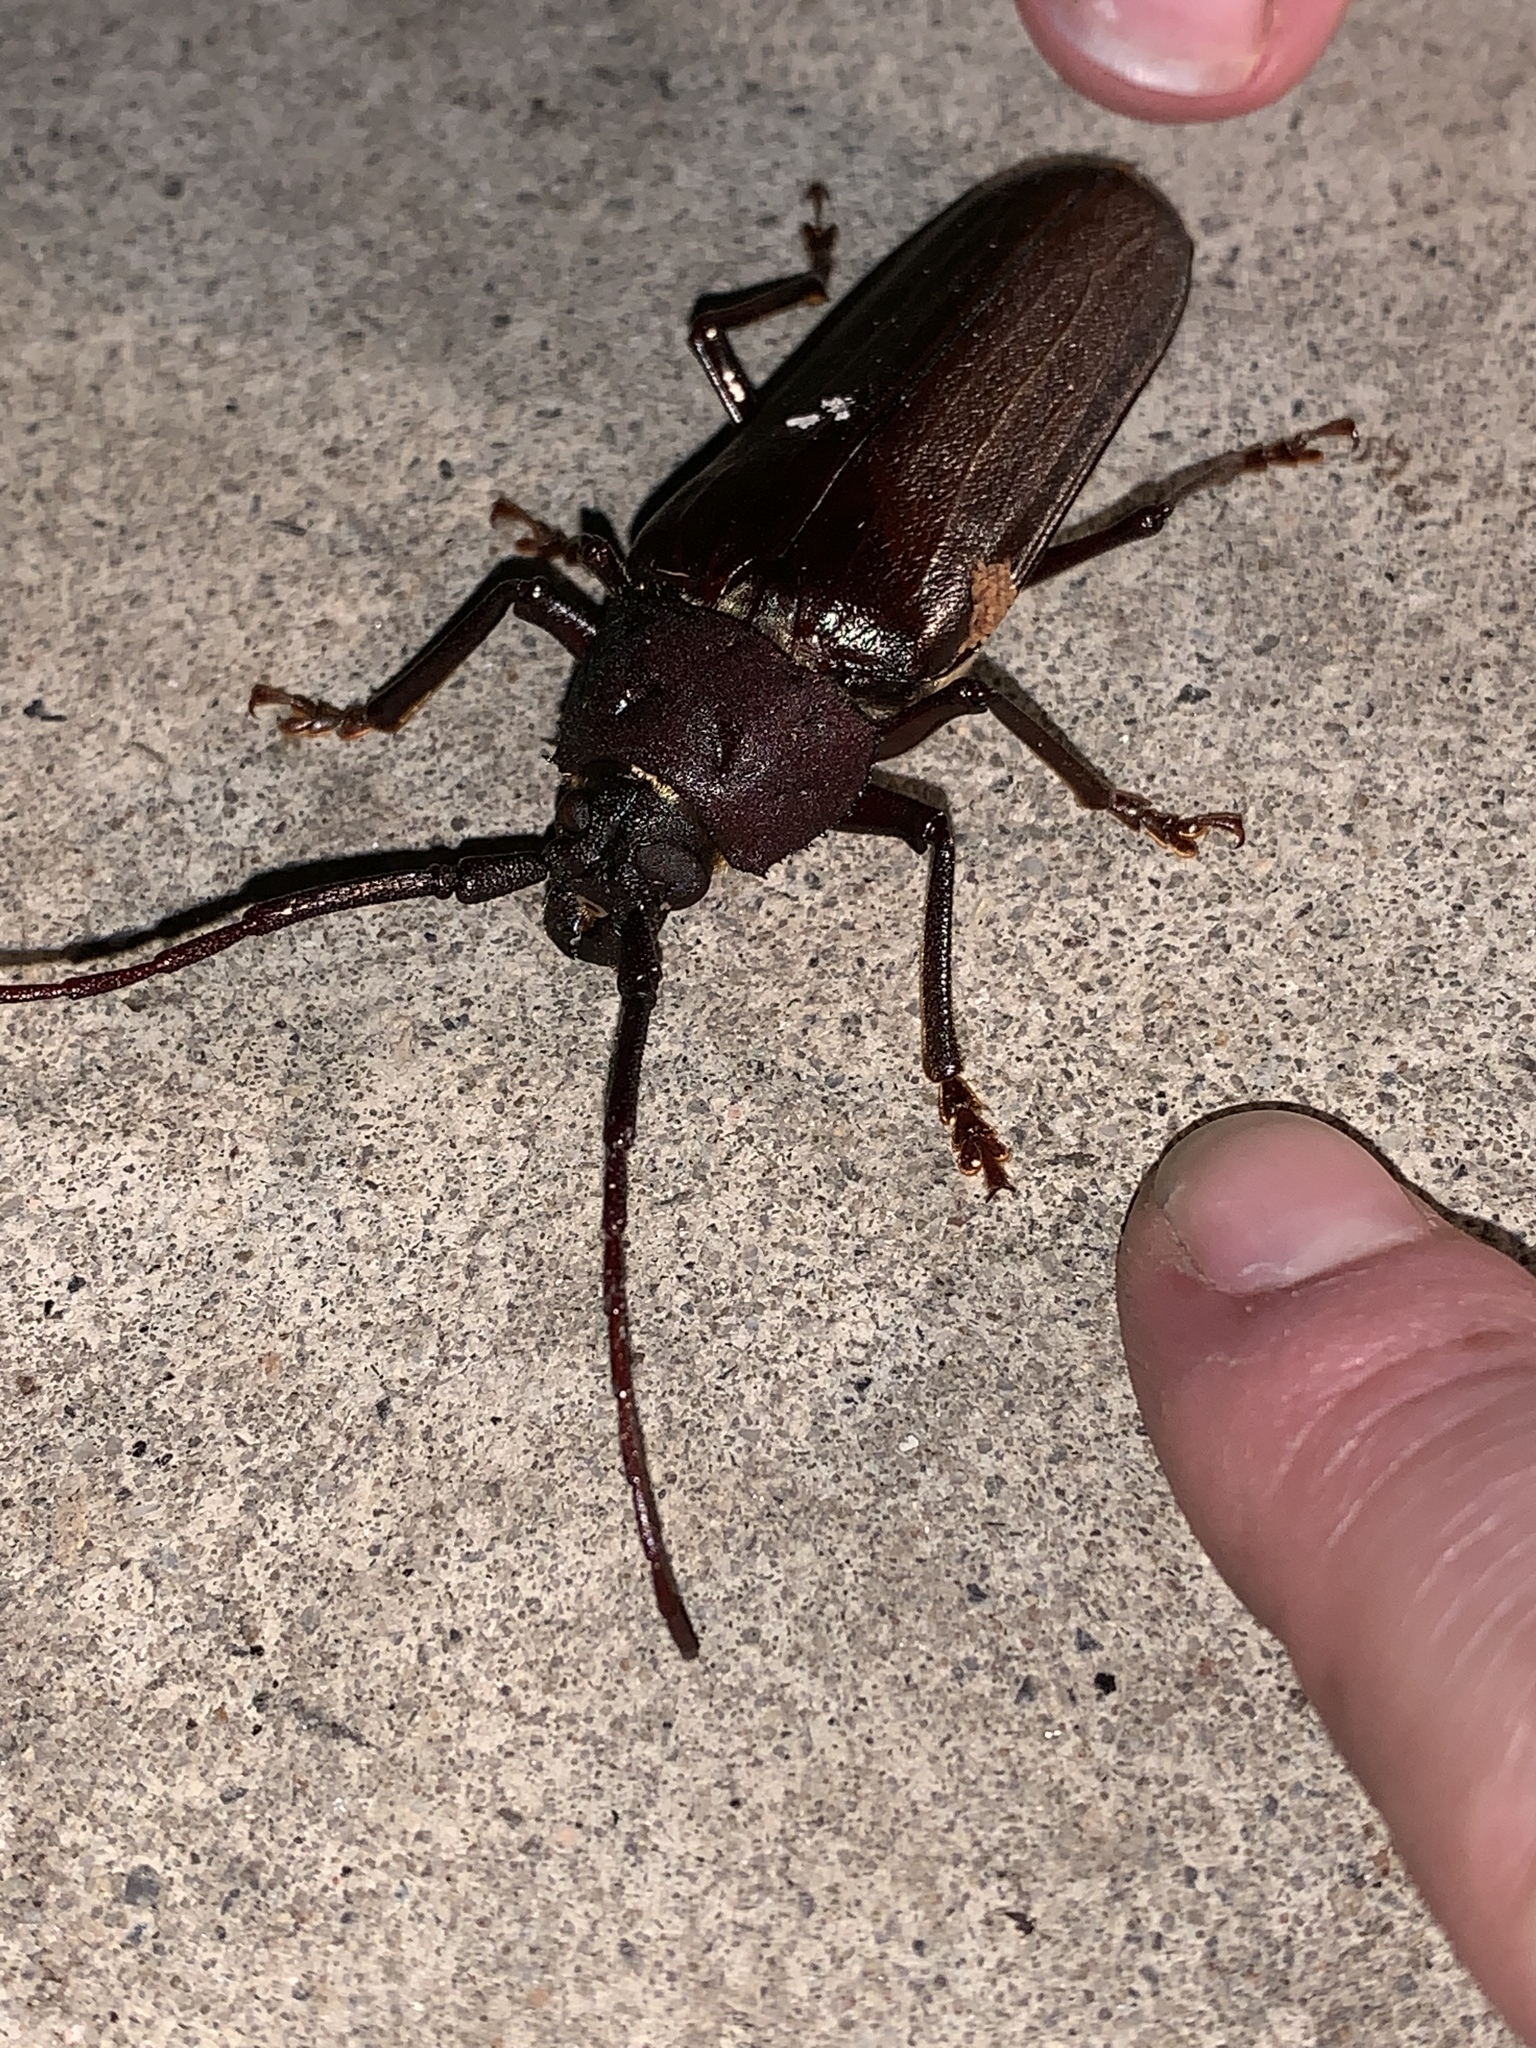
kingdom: Animalia
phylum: Arthropoda
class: Insecta
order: Coleoptera
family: Cerambycidae
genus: Trichocnemis
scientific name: Trichocnemis spiculatus
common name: Long-horned beetle
